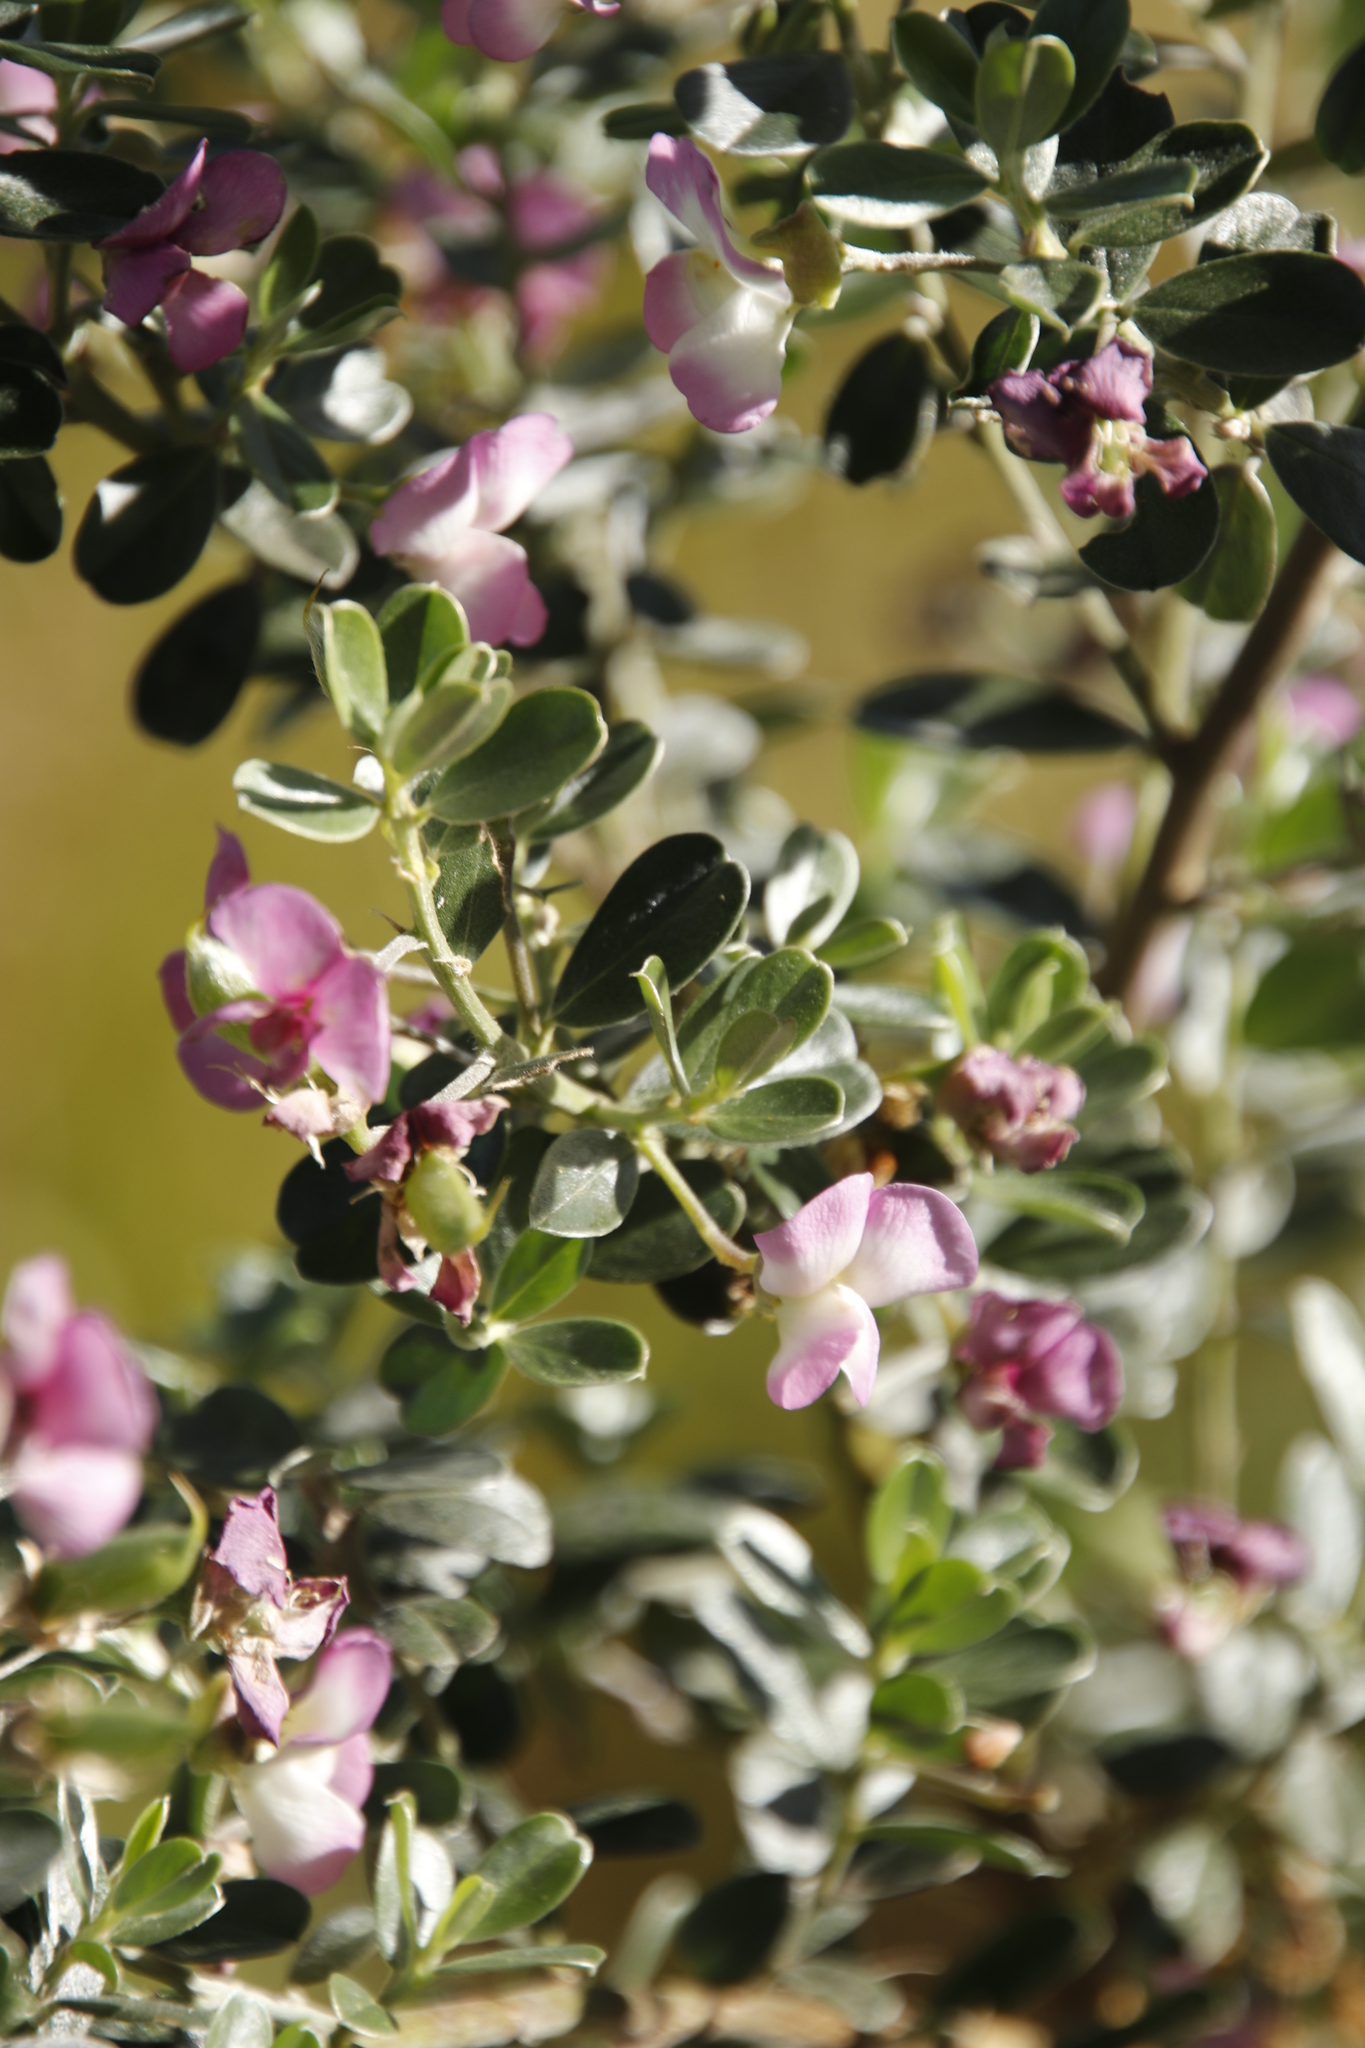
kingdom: Plantae
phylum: Tracheophyta
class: Magnoliopsida
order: Fabales
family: Fabaceae
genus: Podalyria
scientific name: Podalyria myrtillifolia
